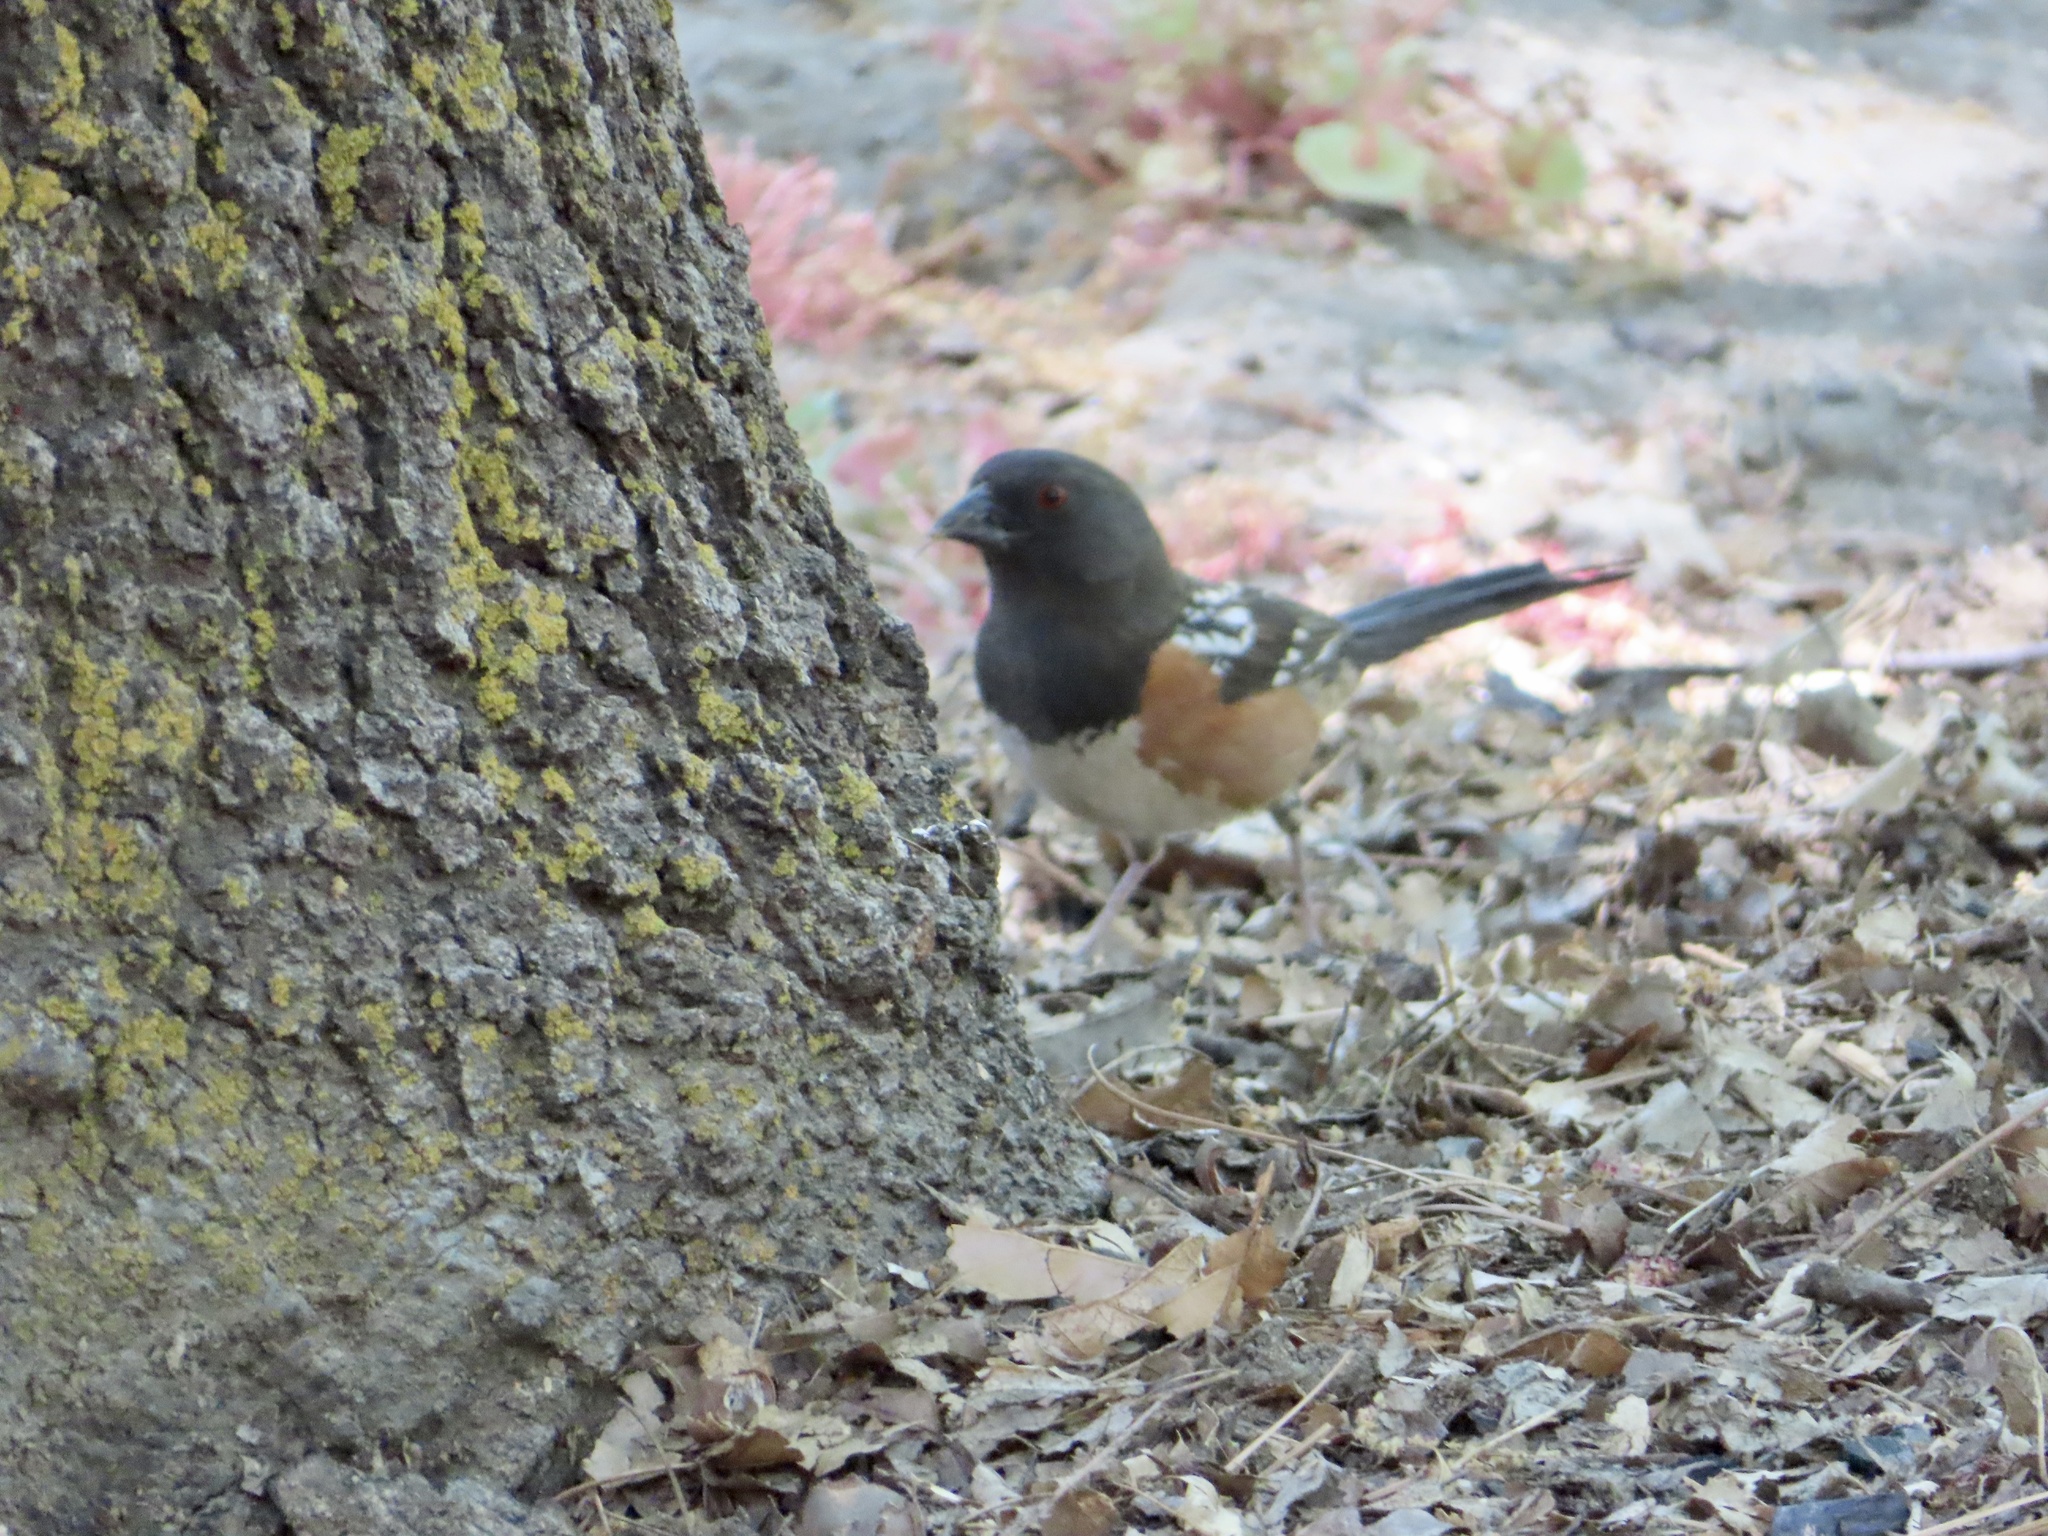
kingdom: Animalia
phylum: Chordata
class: Aves
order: Passeriformes
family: Passerellidae
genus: Pipilo
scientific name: Pipilo maculatus
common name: Spotted towhee
